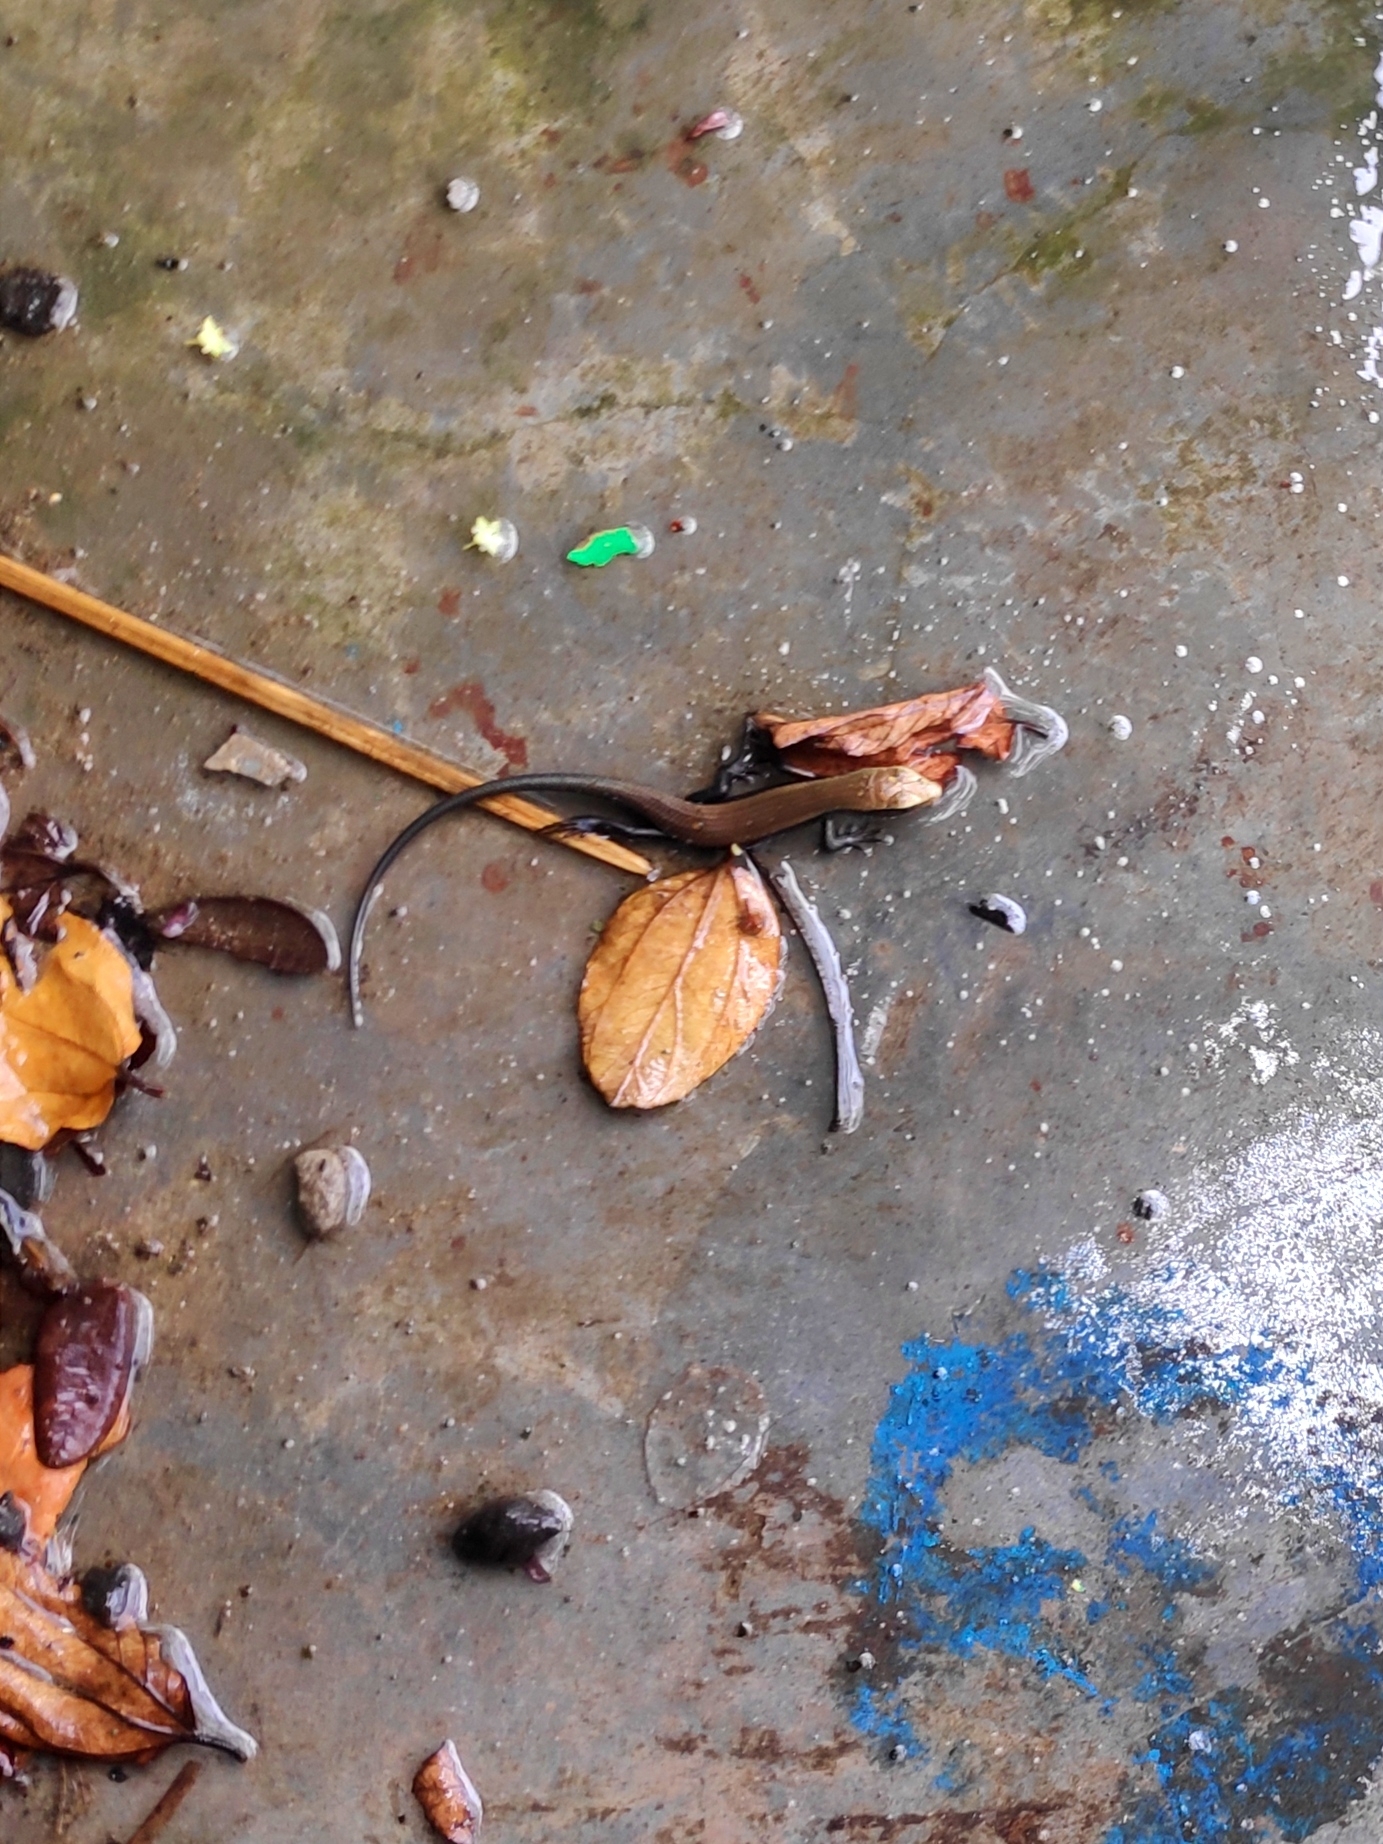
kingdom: Animalia
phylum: Chordata
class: Squamata
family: Scincidae
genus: Eutropis
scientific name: Eutropis macularia
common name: Bronze mabuya
